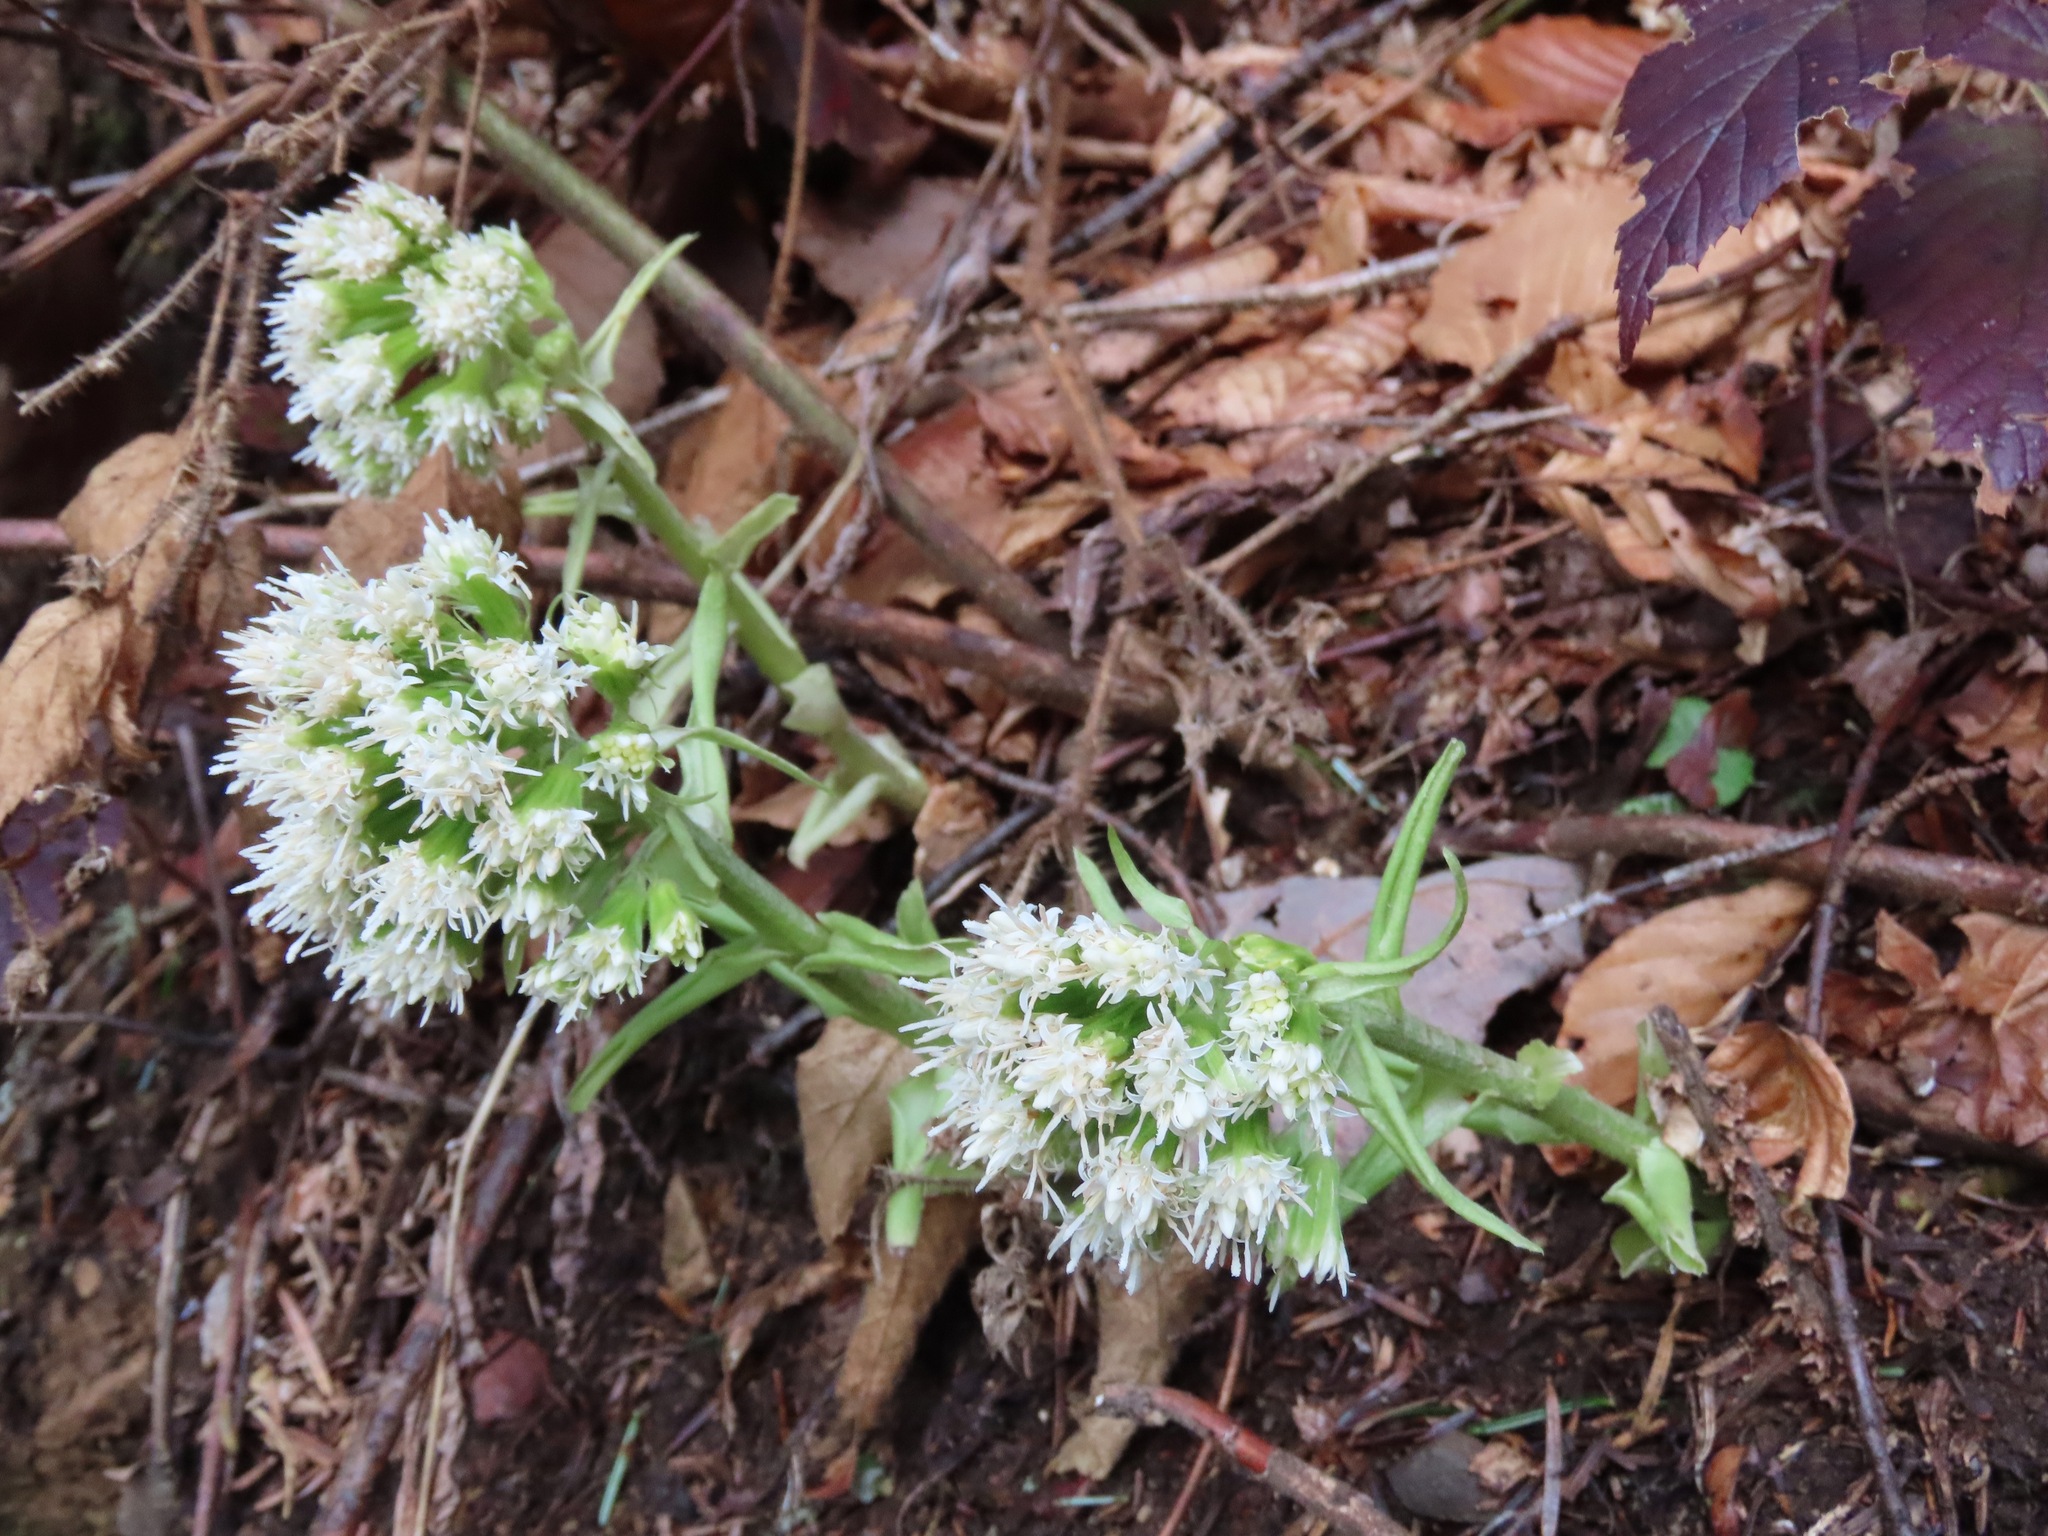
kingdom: Plantae
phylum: Tracheophyta
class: Magnoliopsida
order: Asterales
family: Asteraceae
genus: Petasites
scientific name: Petasites albus
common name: White butterbur
